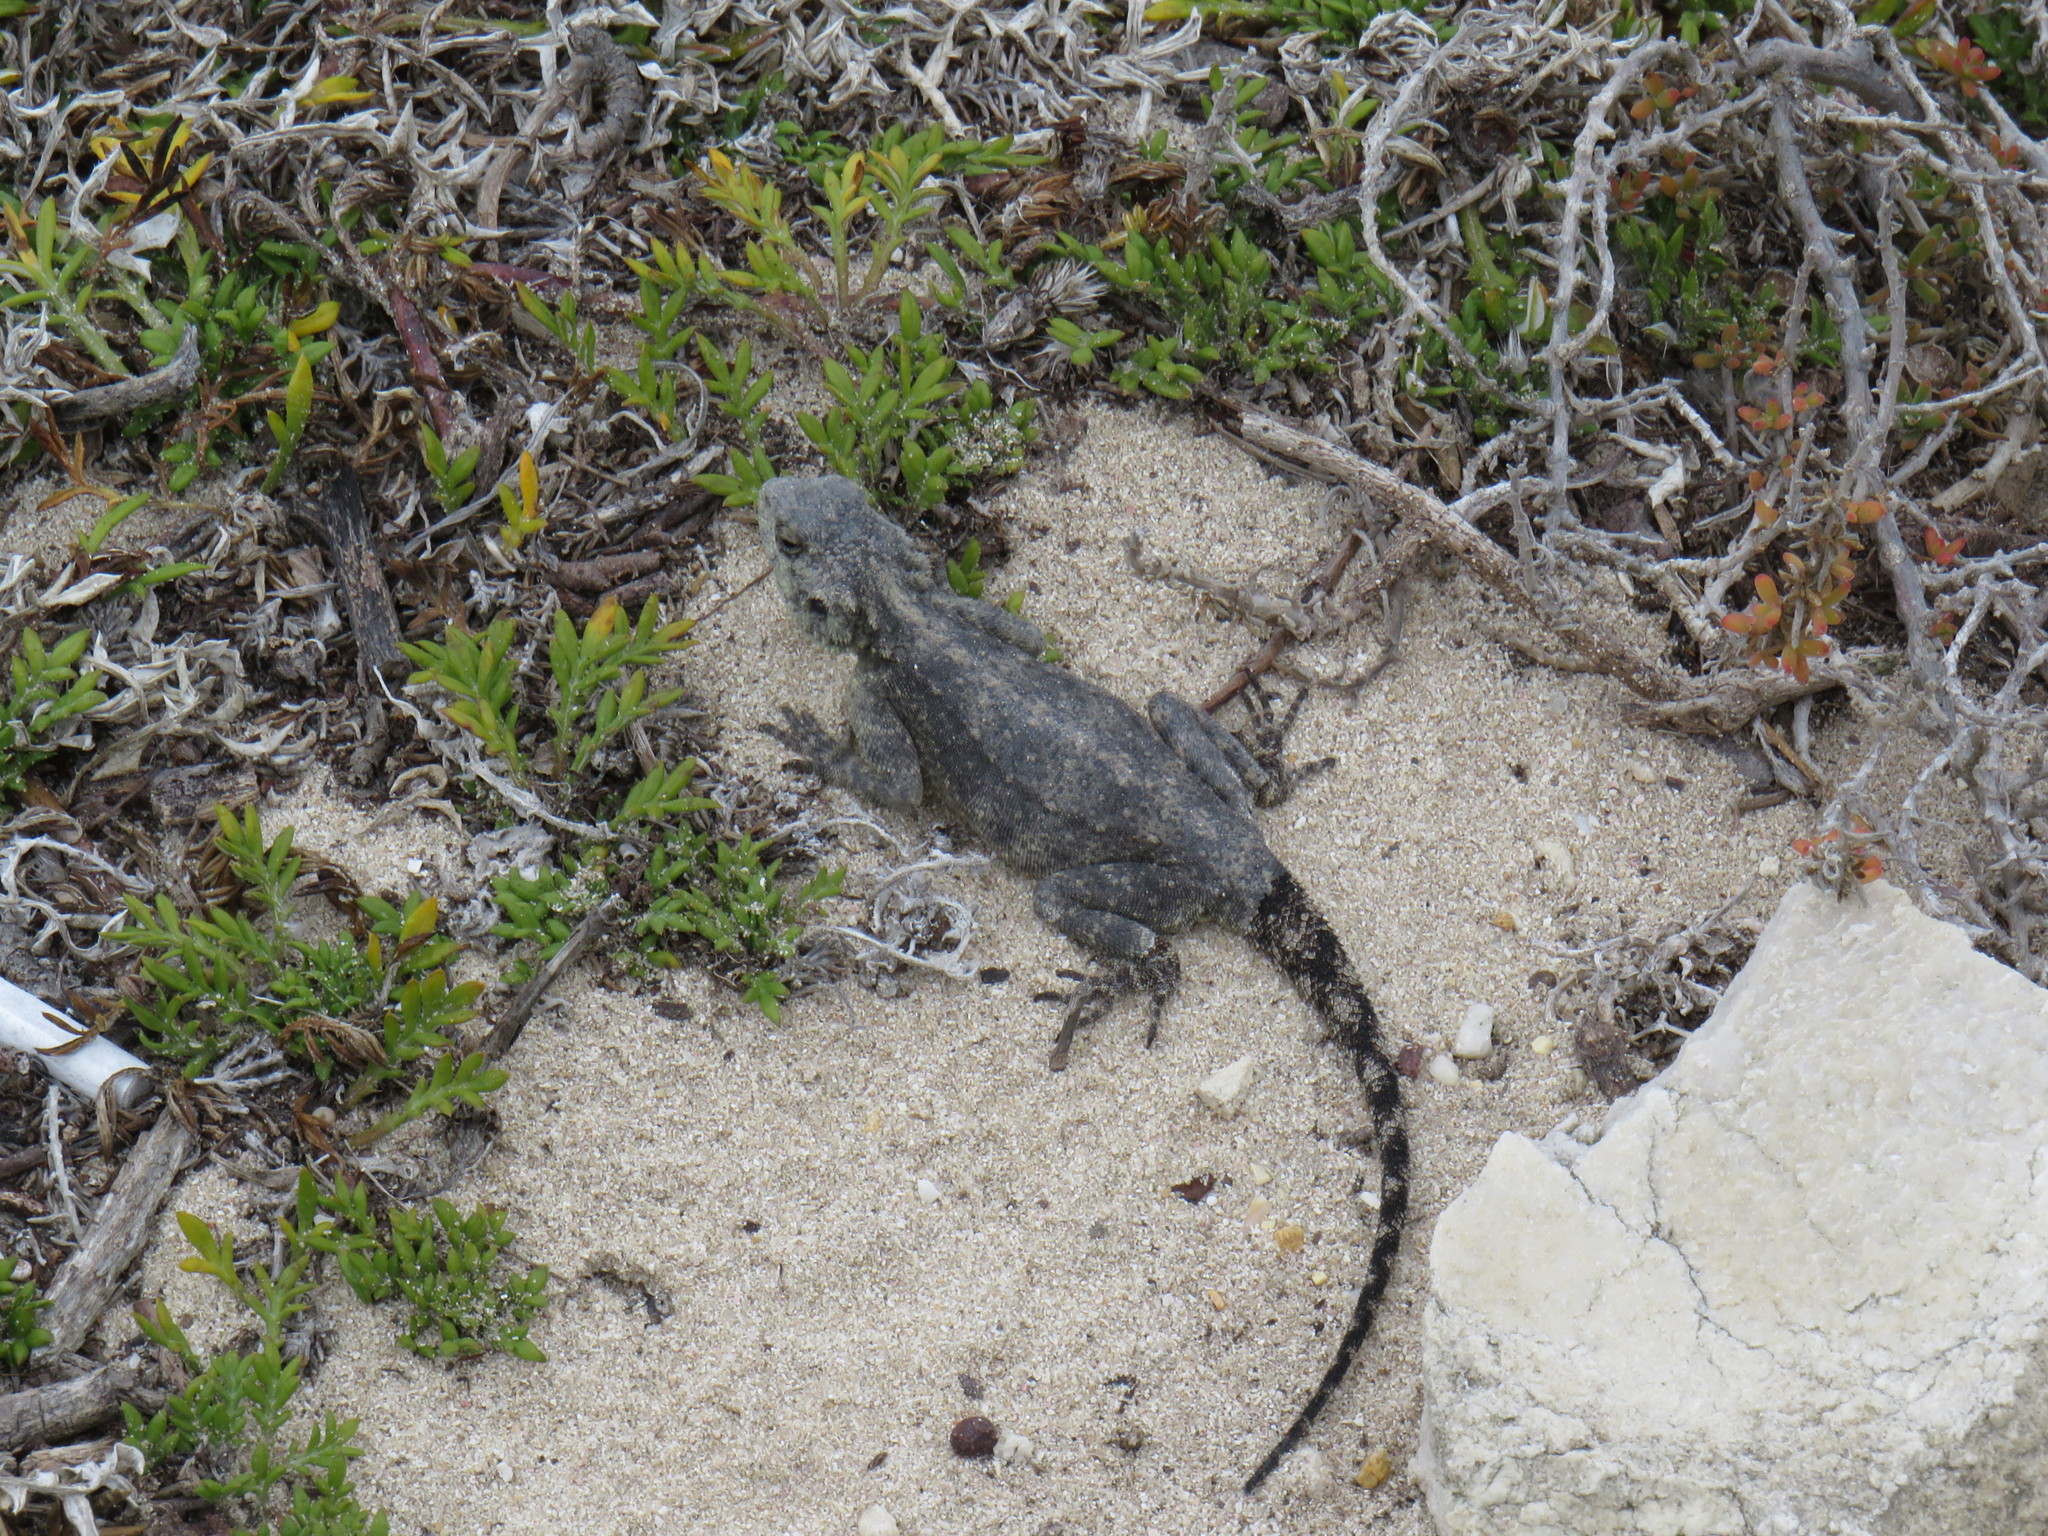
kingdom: Animalia
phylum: Chordata
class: Squamata
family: Agamidae
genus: Agama
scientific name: Agama atra
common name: Southern african rock agama
